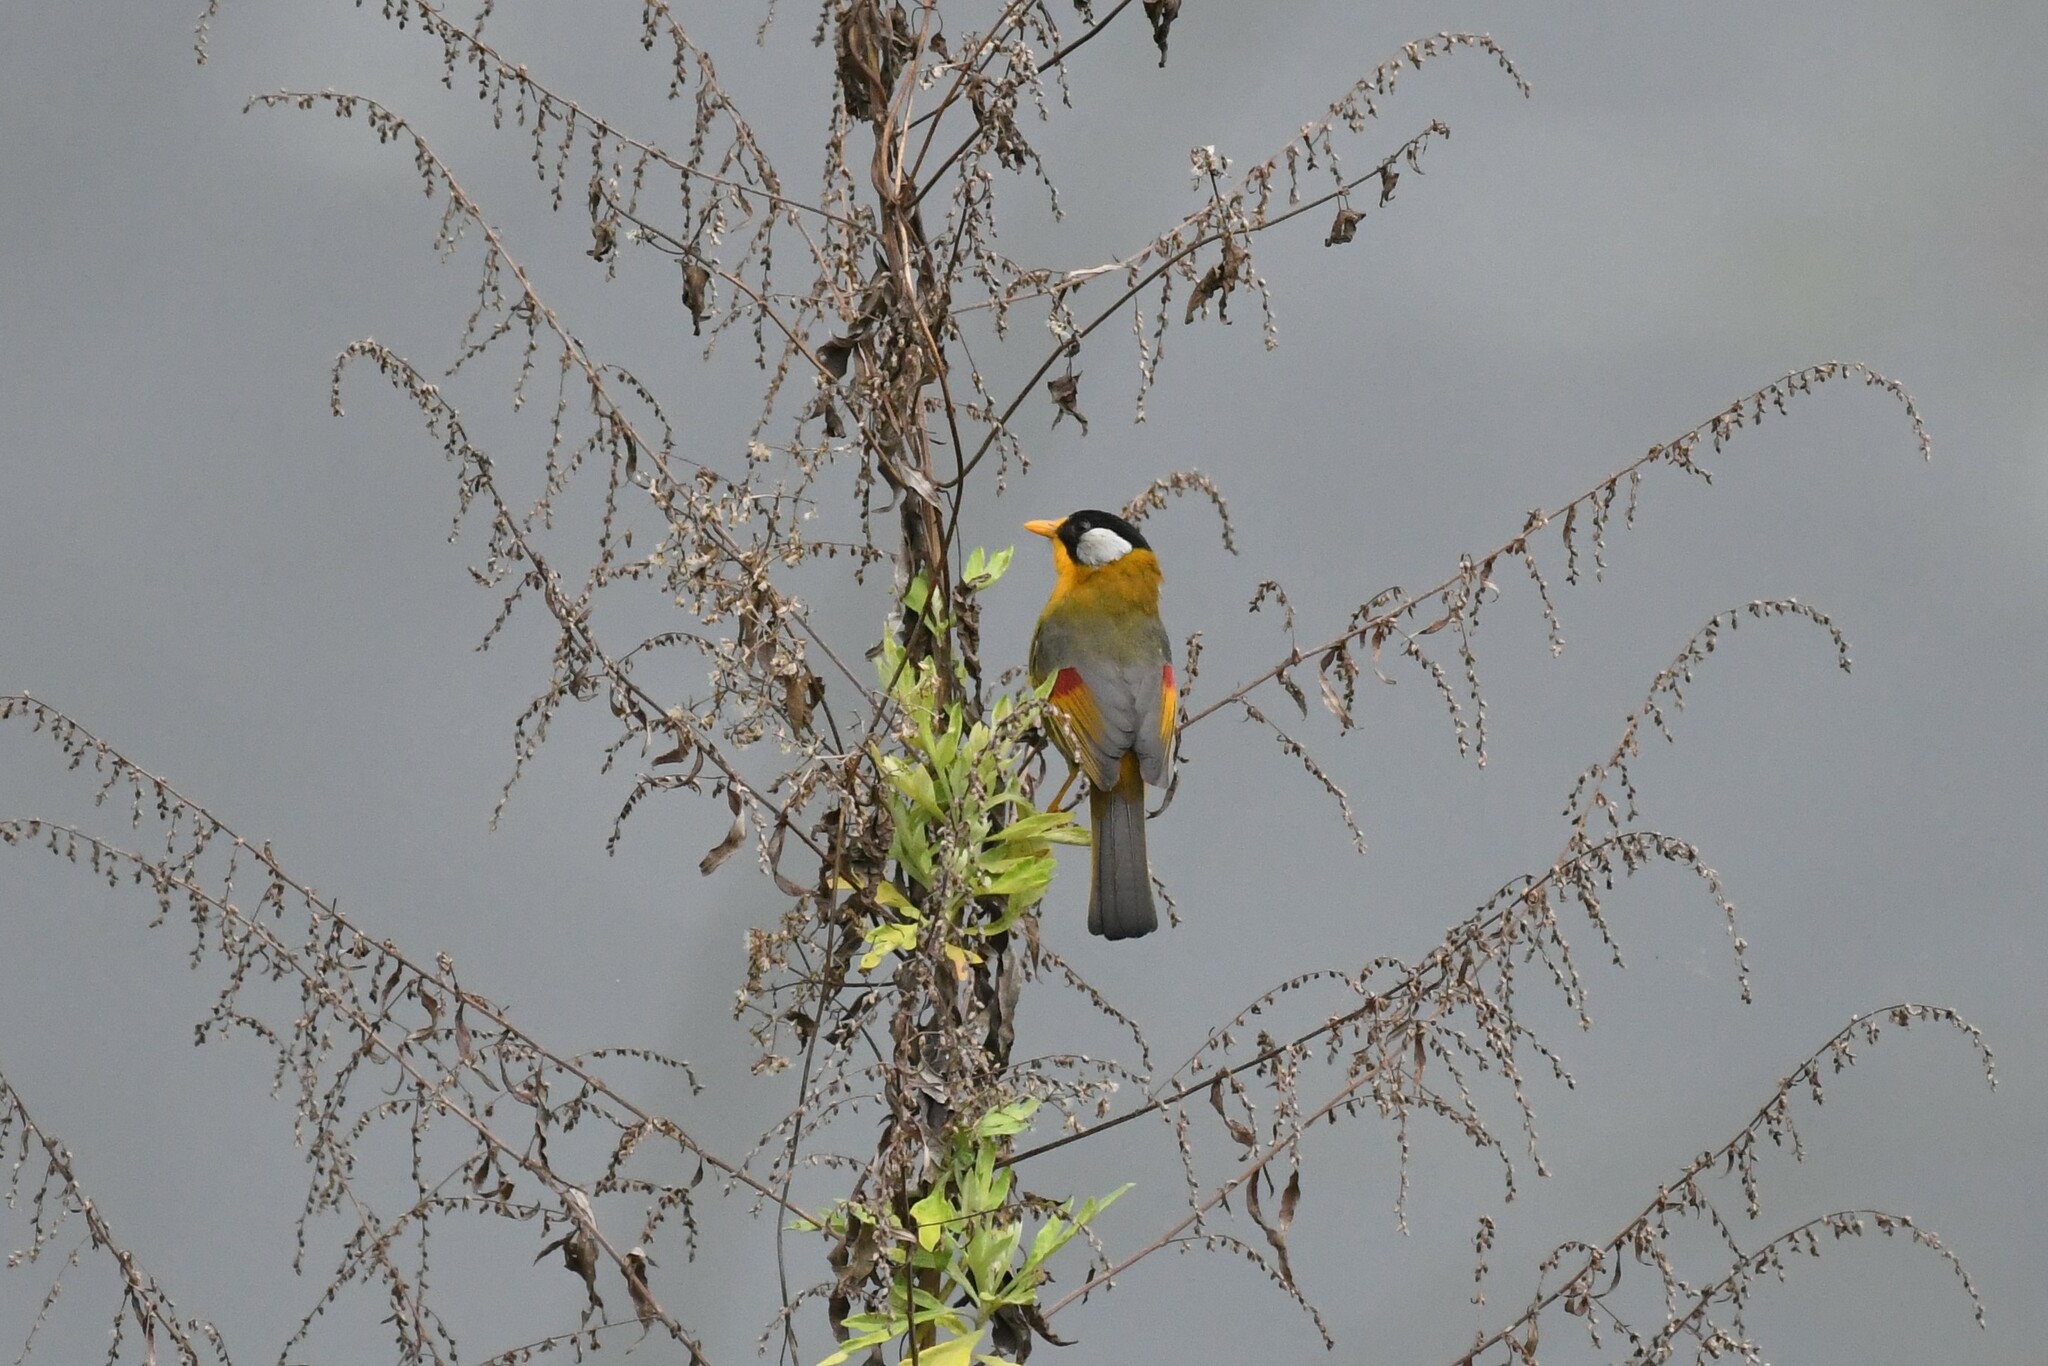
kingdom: Animalia
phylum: Chordata
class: Aves
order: Passeriformes
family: Leiothrichidae
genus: Leiothrix
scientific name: Leiothrix argentauris
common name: Silver-eared mesia
